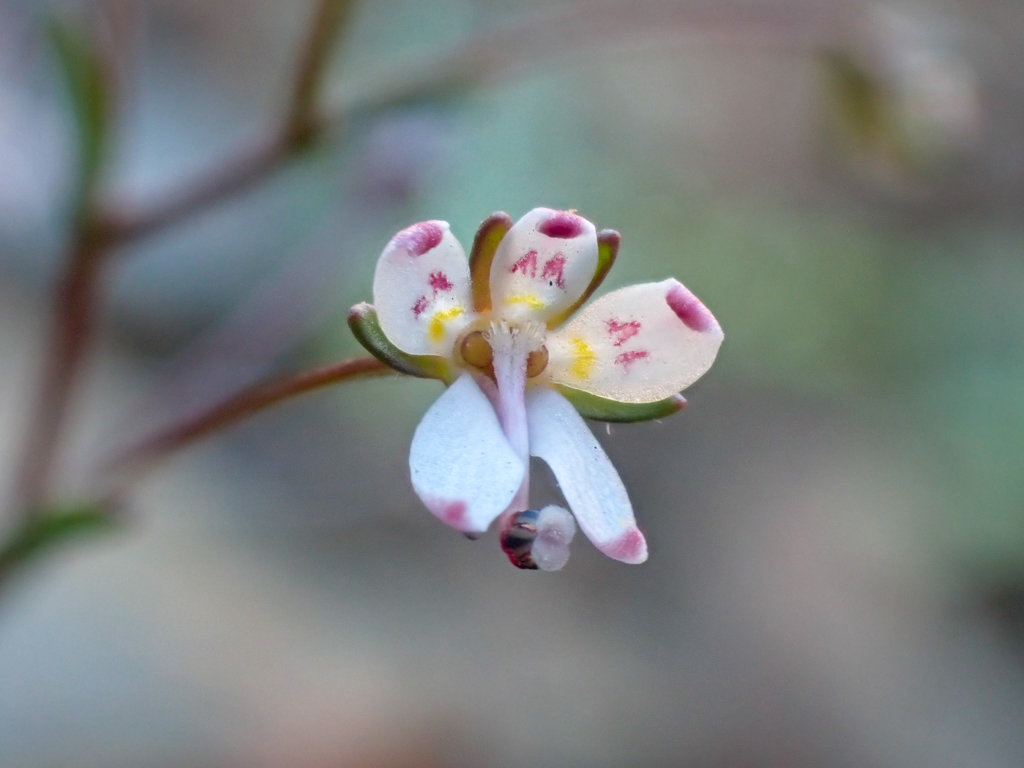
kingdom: Plantae
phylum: Tracheophyta
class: Magnoliopsida
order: Asterales
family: Campanulaceae
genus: Nemacladus
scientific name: Nemacladus montanus
